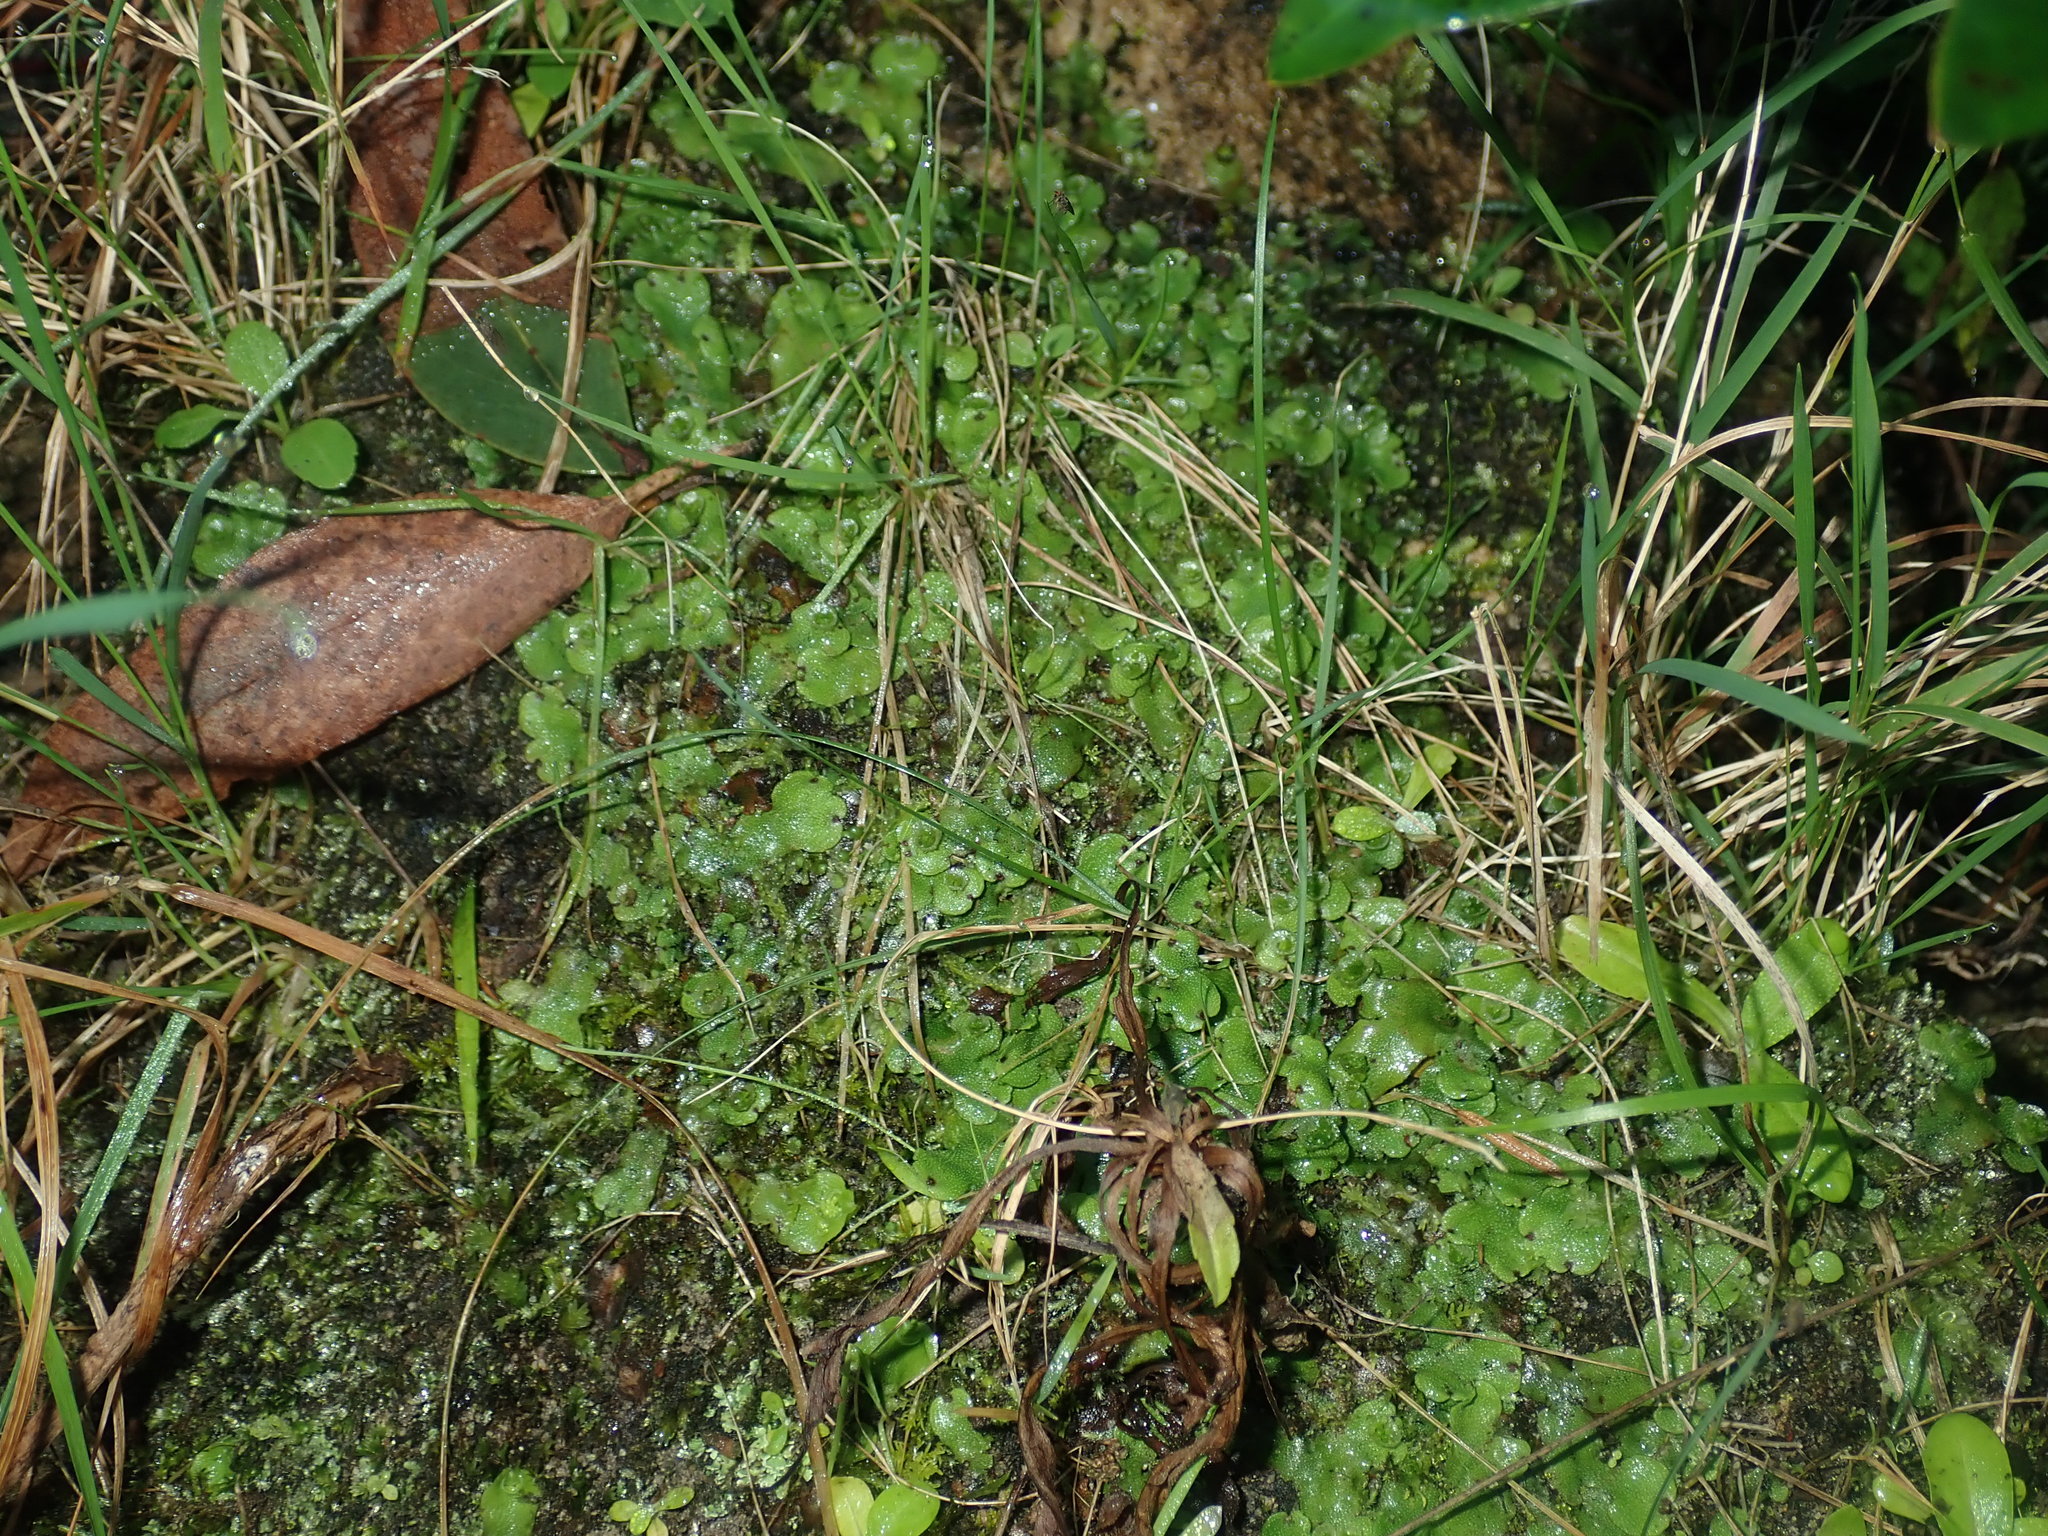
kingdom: Plantae
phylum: Marchantiophyta
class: Marchantiopsida
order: Marchantiales
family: Marchantiaceae
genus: Marchantia
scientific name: Marchantia berteroana
